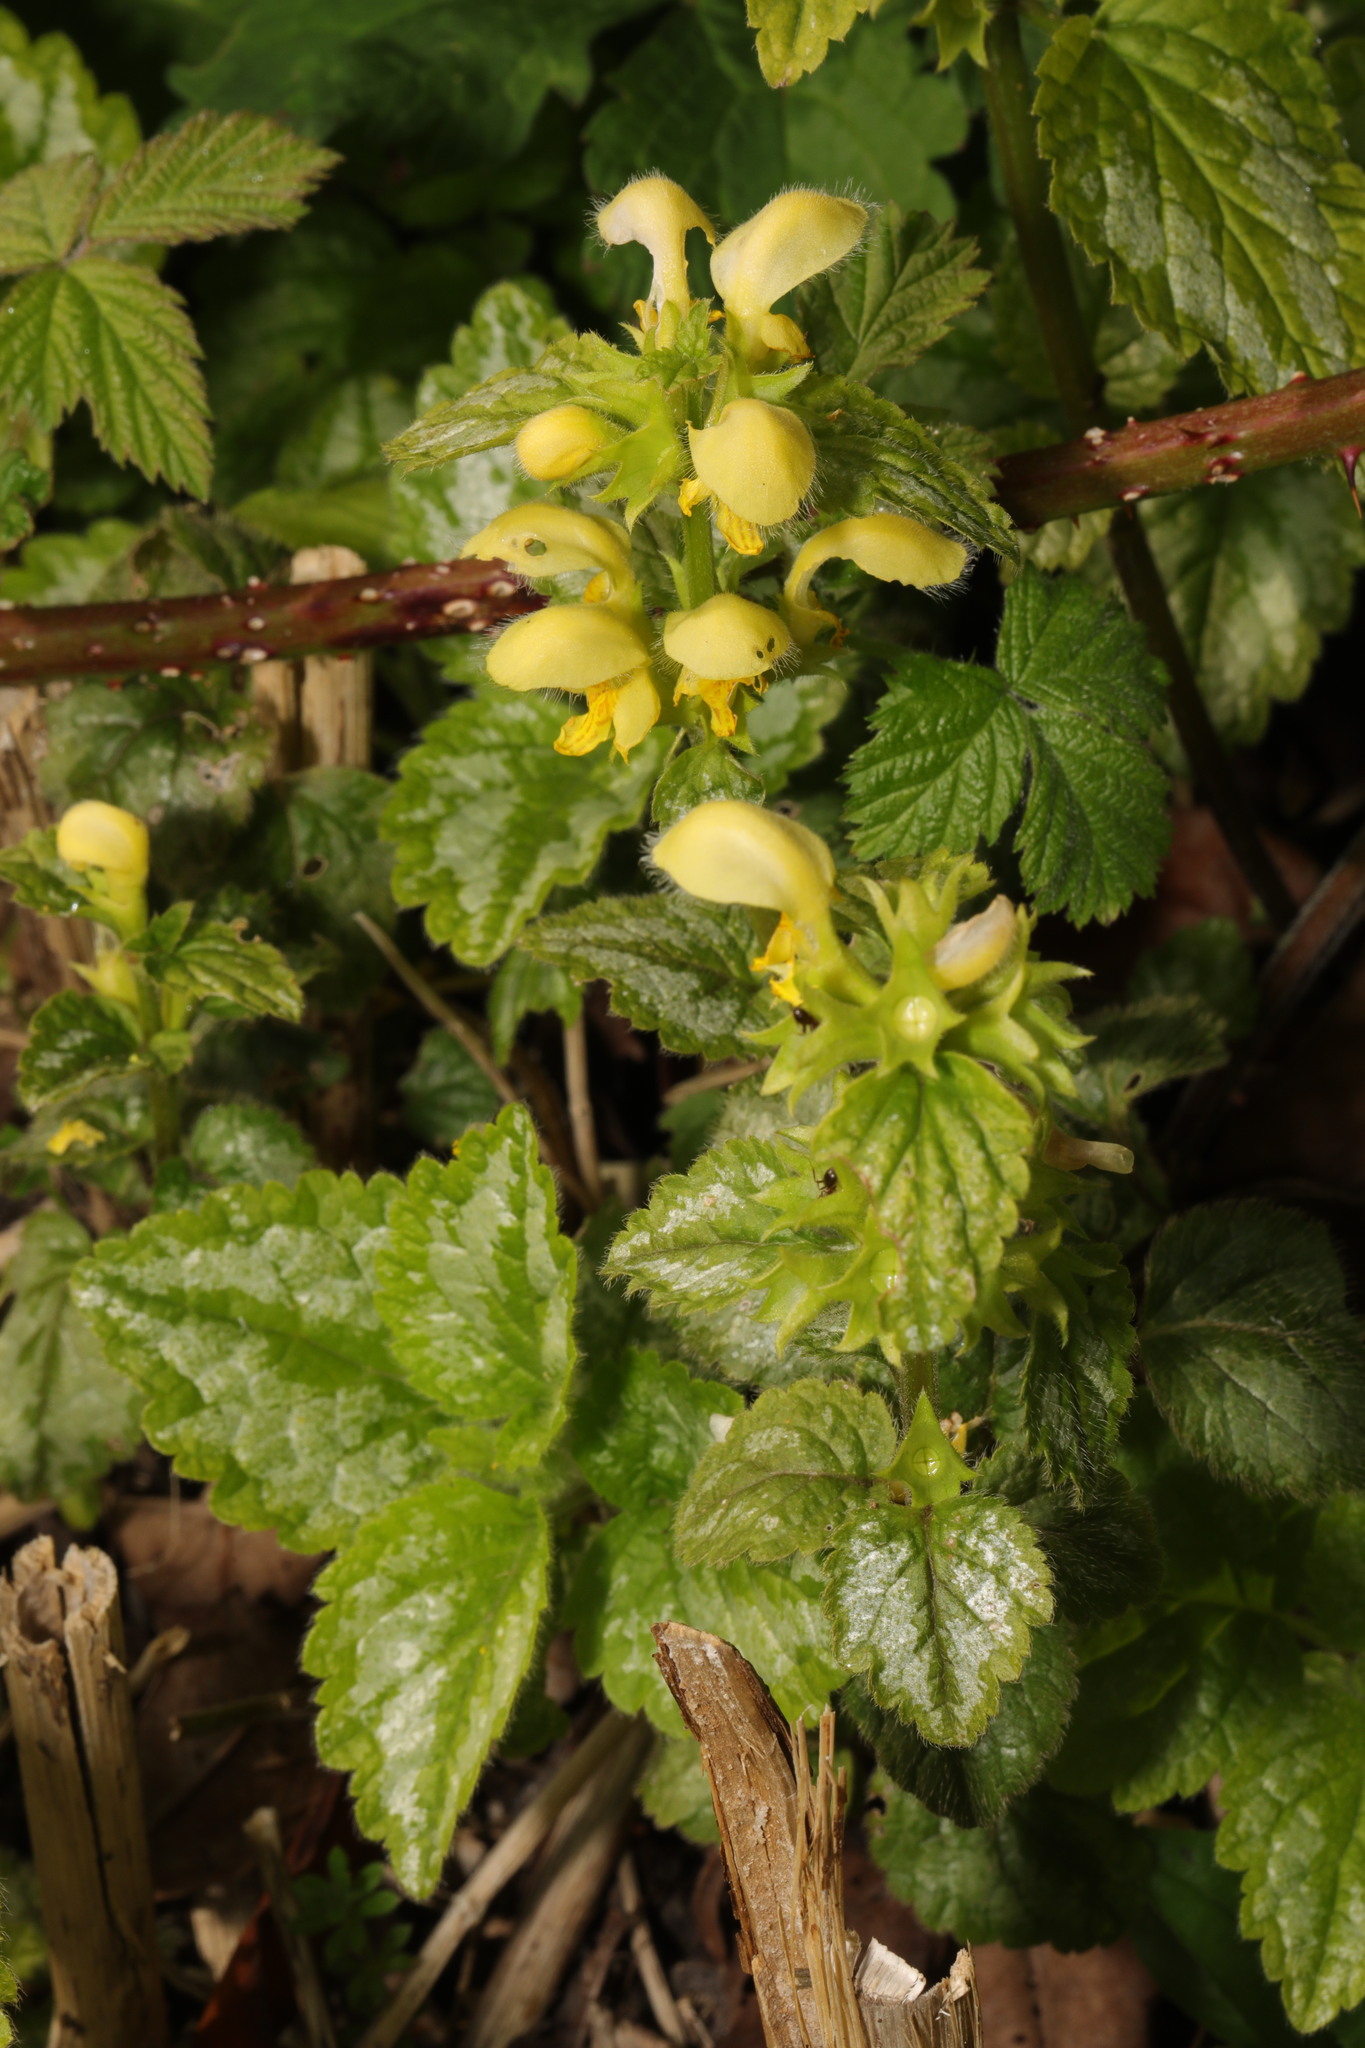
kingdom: Plantae
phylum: Tracheophyta
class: Magnoliopsida
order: Lamiales
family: Lamiaceae
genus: Lamium
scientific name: Lamium galeobdolon
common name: Yellow archangel
